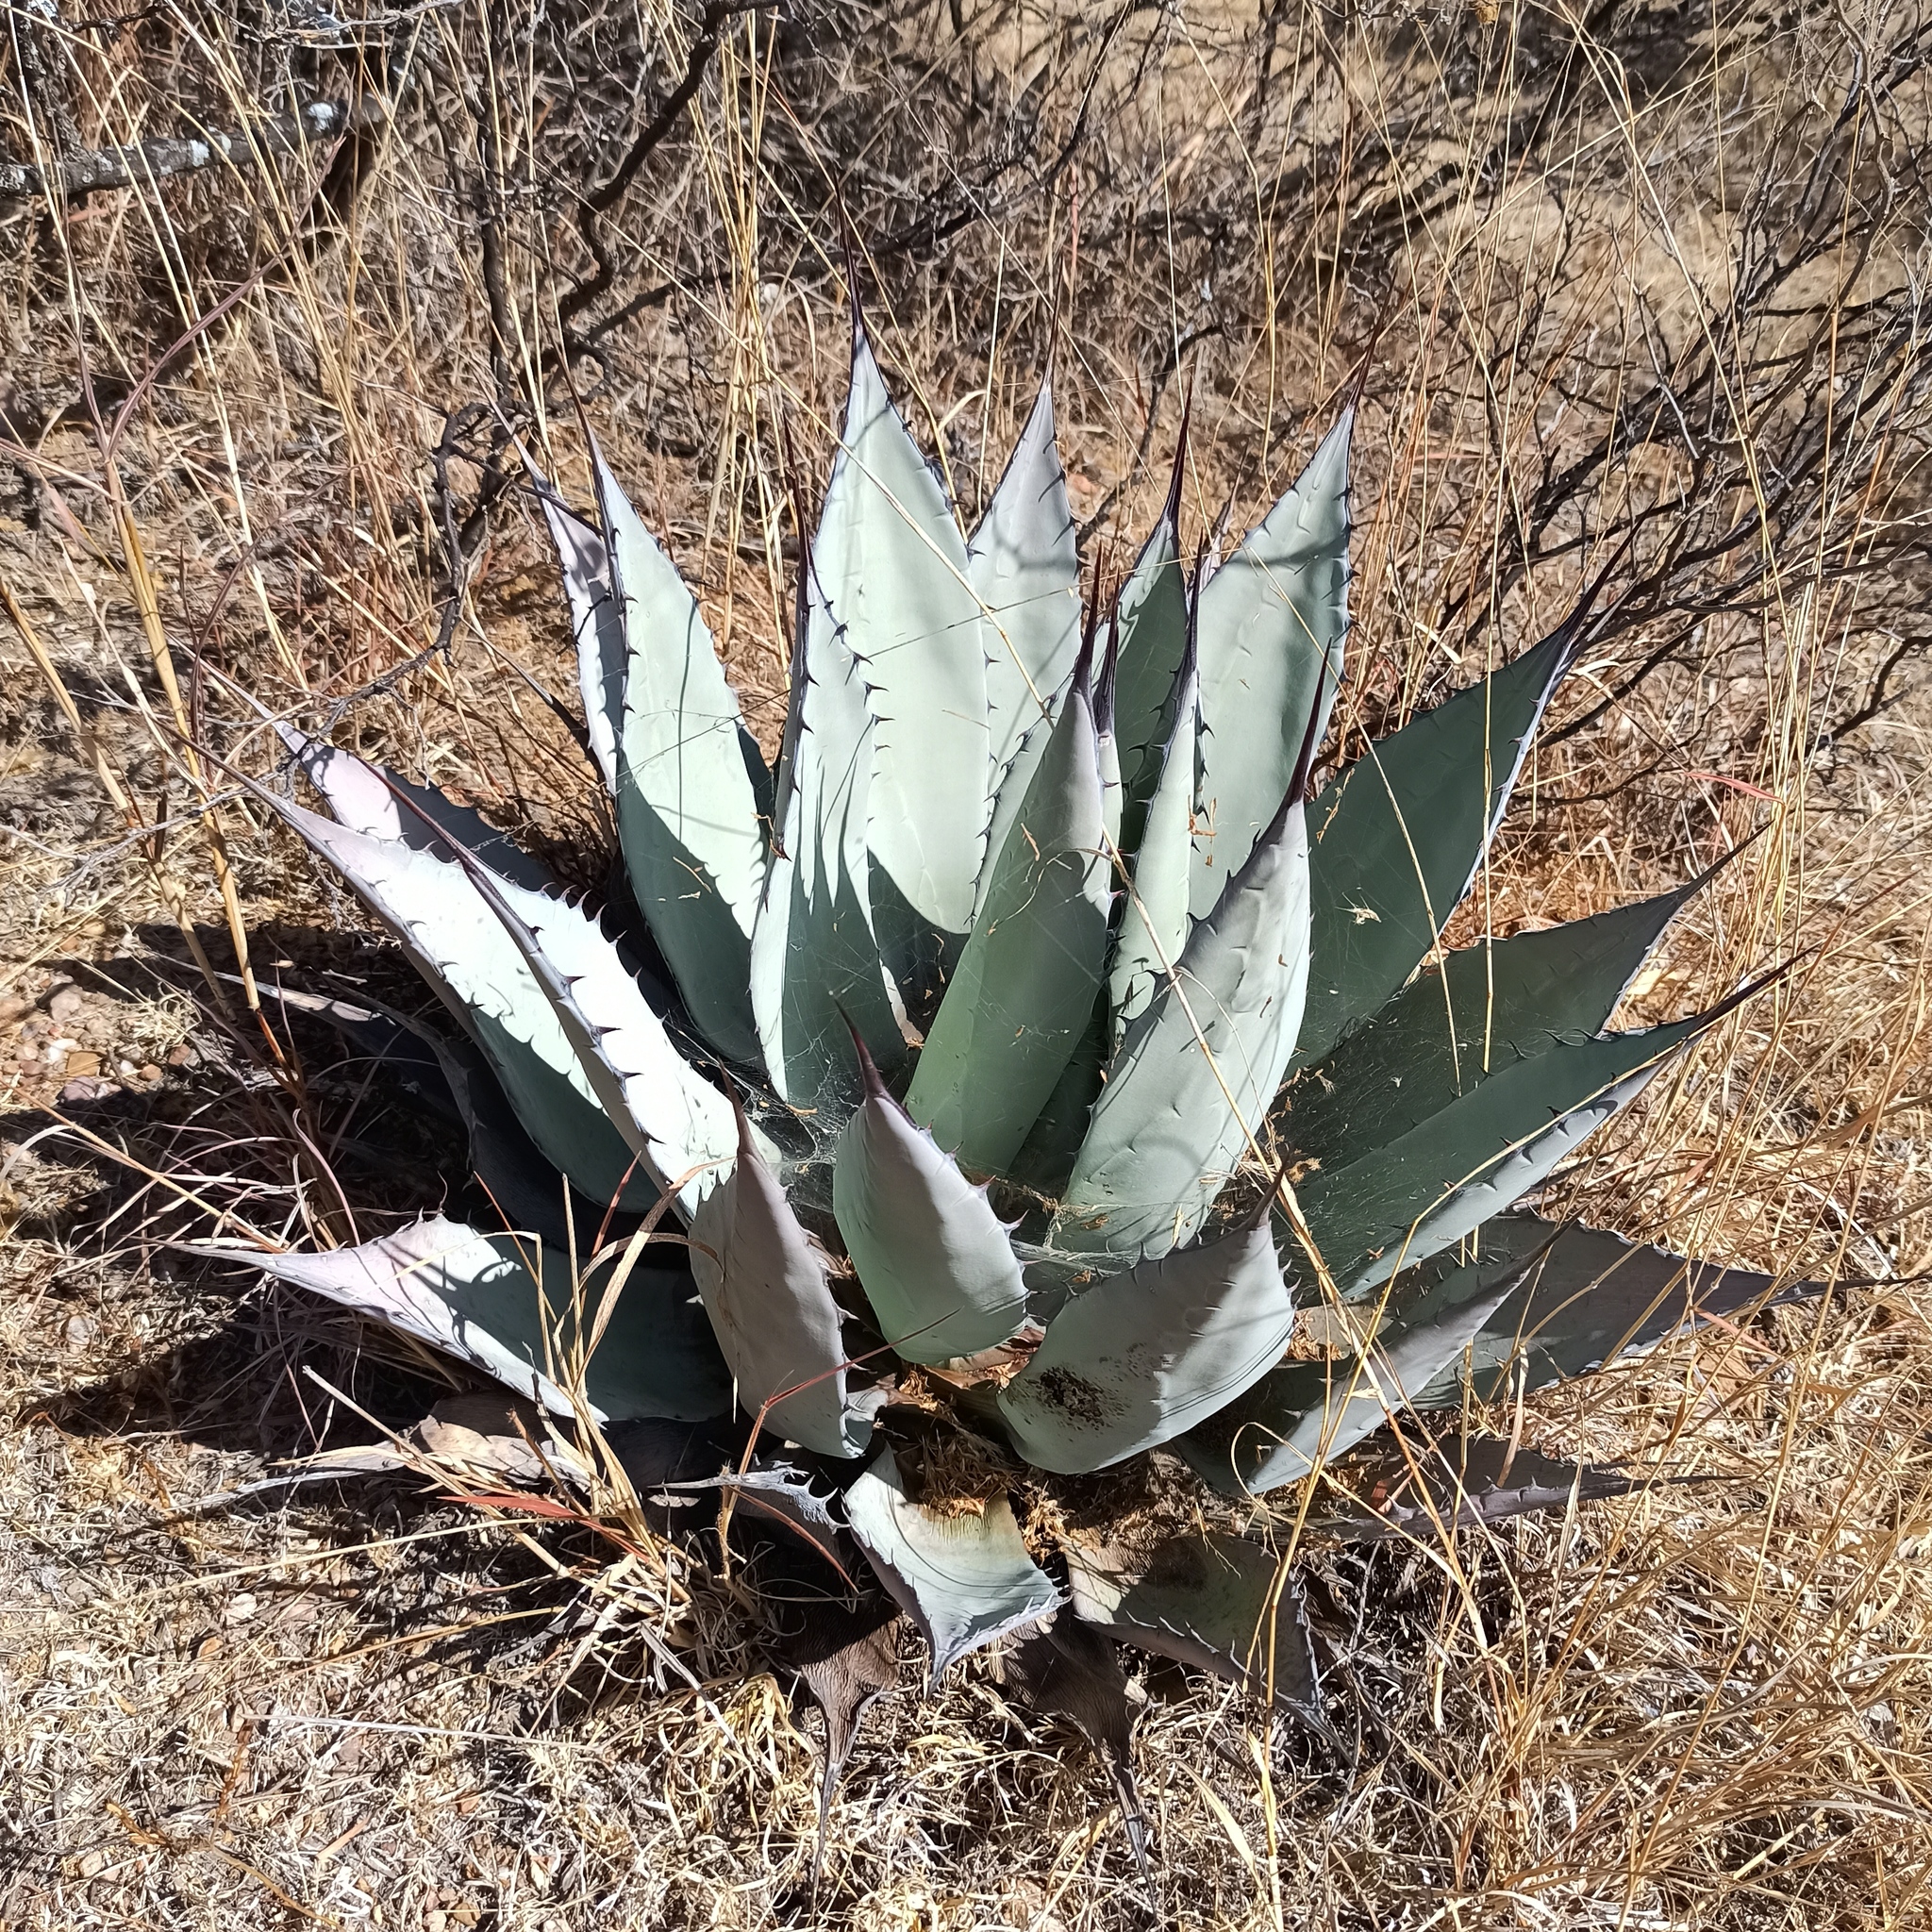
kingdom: Plantae
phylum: Tracheophyta
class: Liliopsida
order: Asparagales
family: Asparagaceae
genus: Agave
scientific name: Agave applanata
